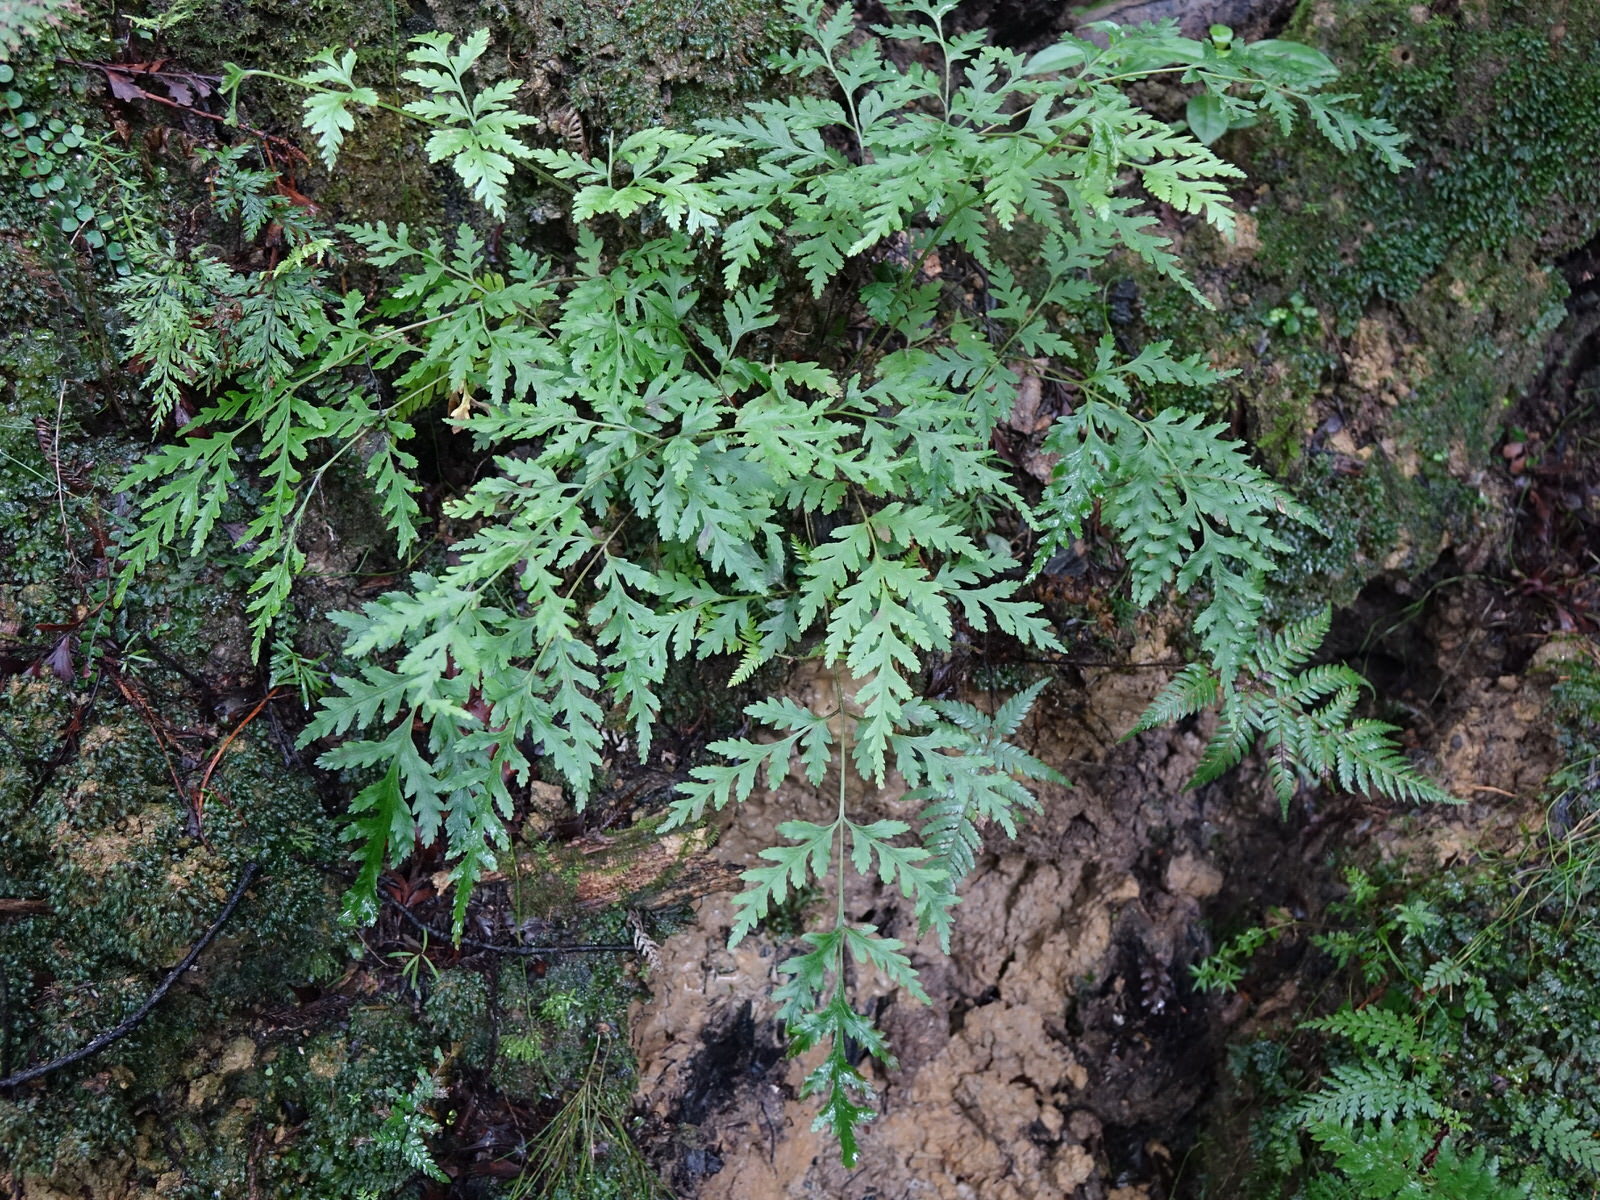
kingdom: Plantae
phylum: Tracheophyta
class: Polypodiopsida
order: Polypodiales
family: Pteridaceae
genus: Pteris
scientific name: Pteris macilenta
